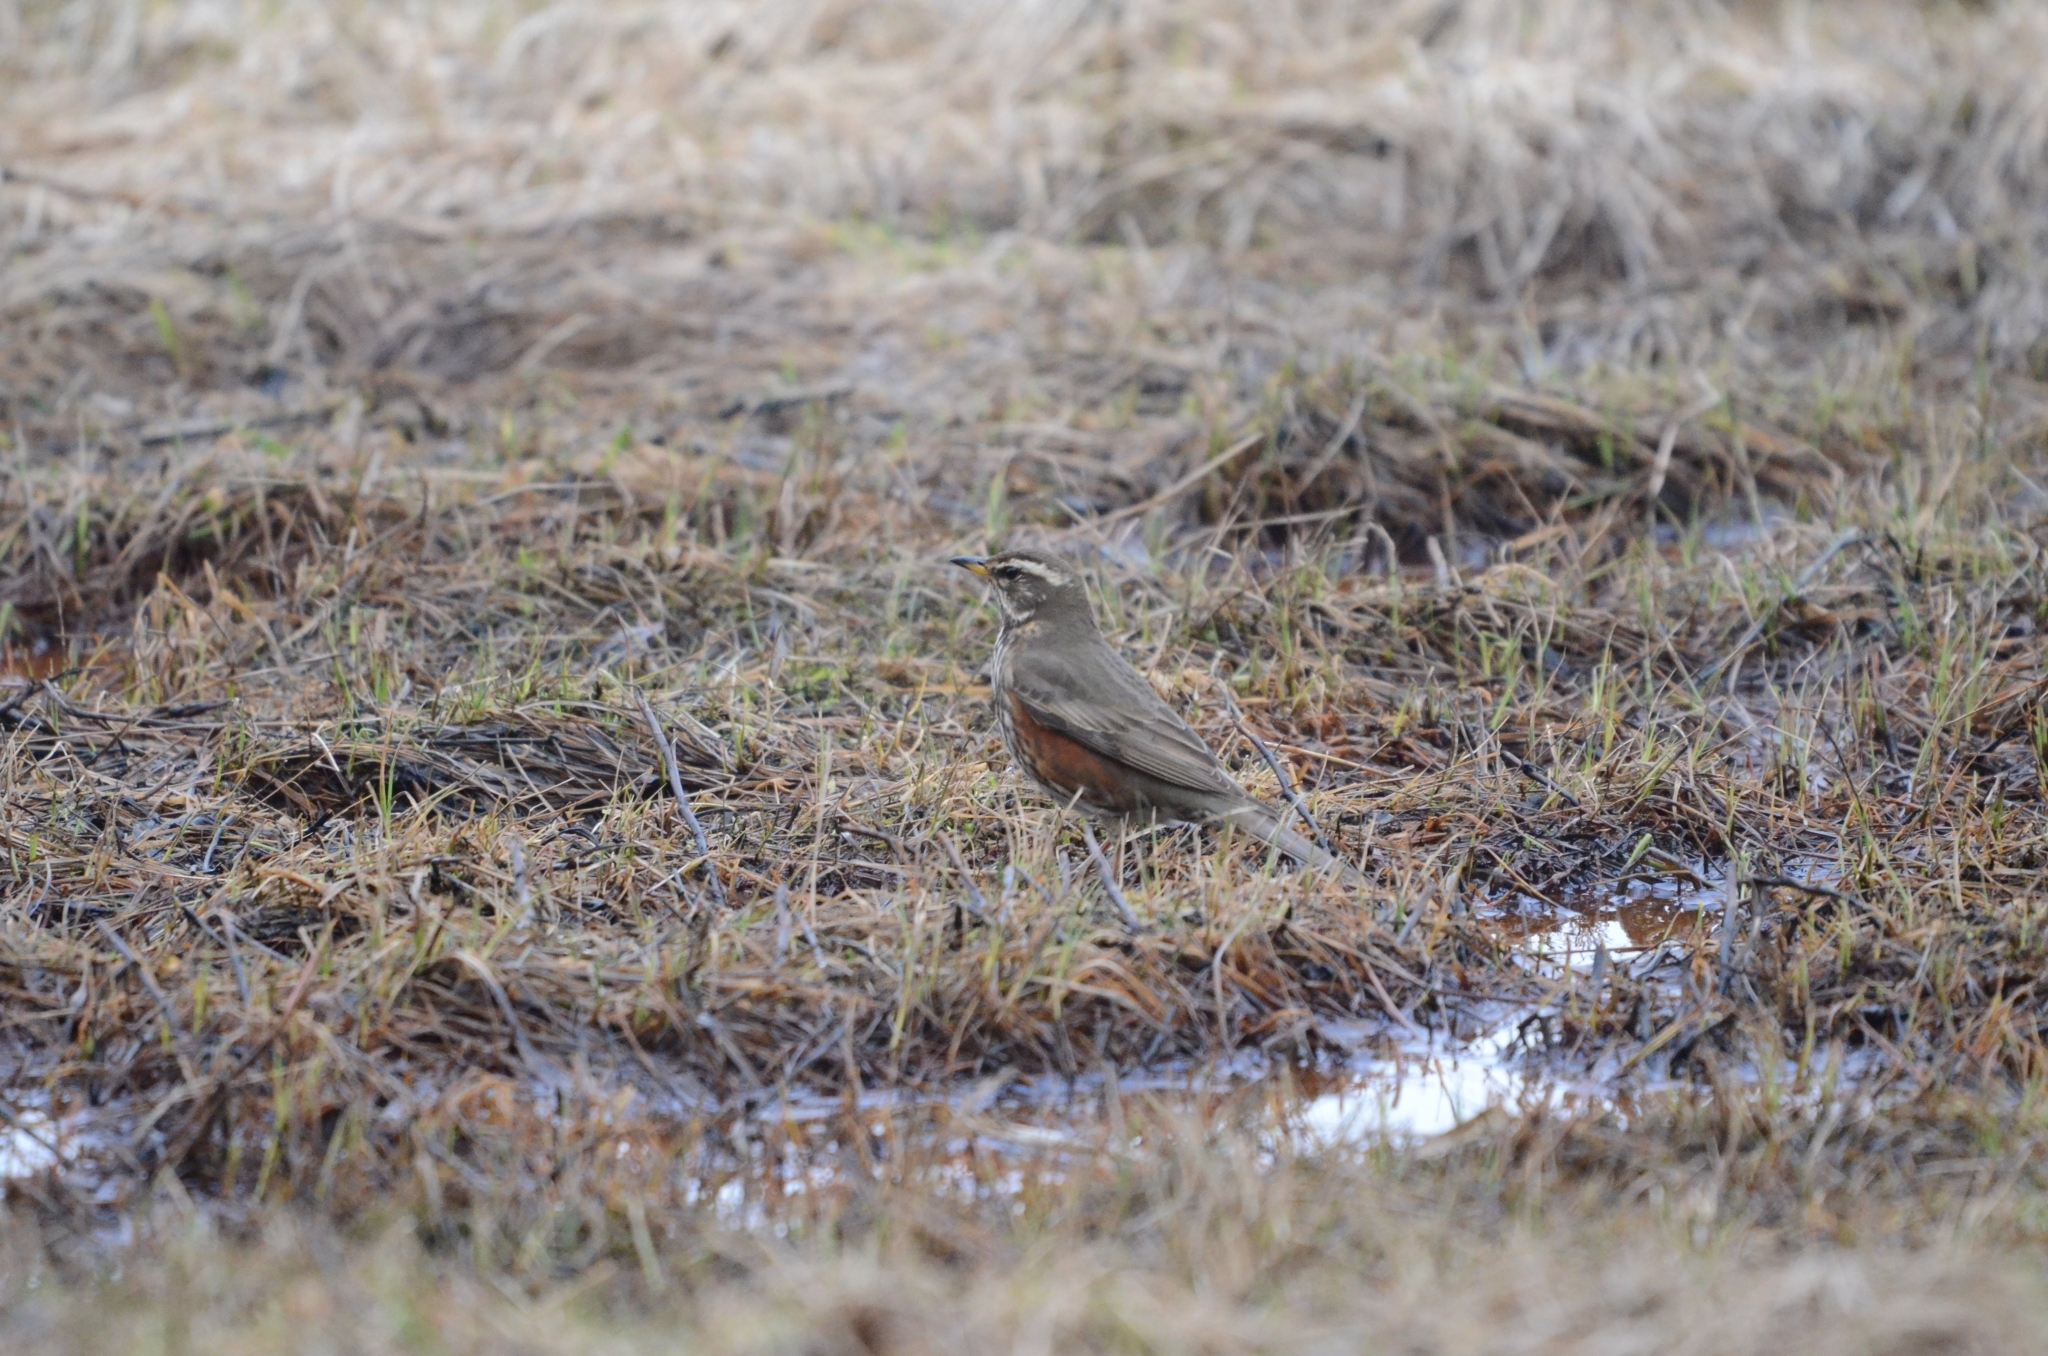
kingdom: Animalia
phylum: Chordata
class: Aves
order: Passeriformes
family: Turdidae
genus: Turdus
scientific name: Turdus iliacus
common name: Redwing
